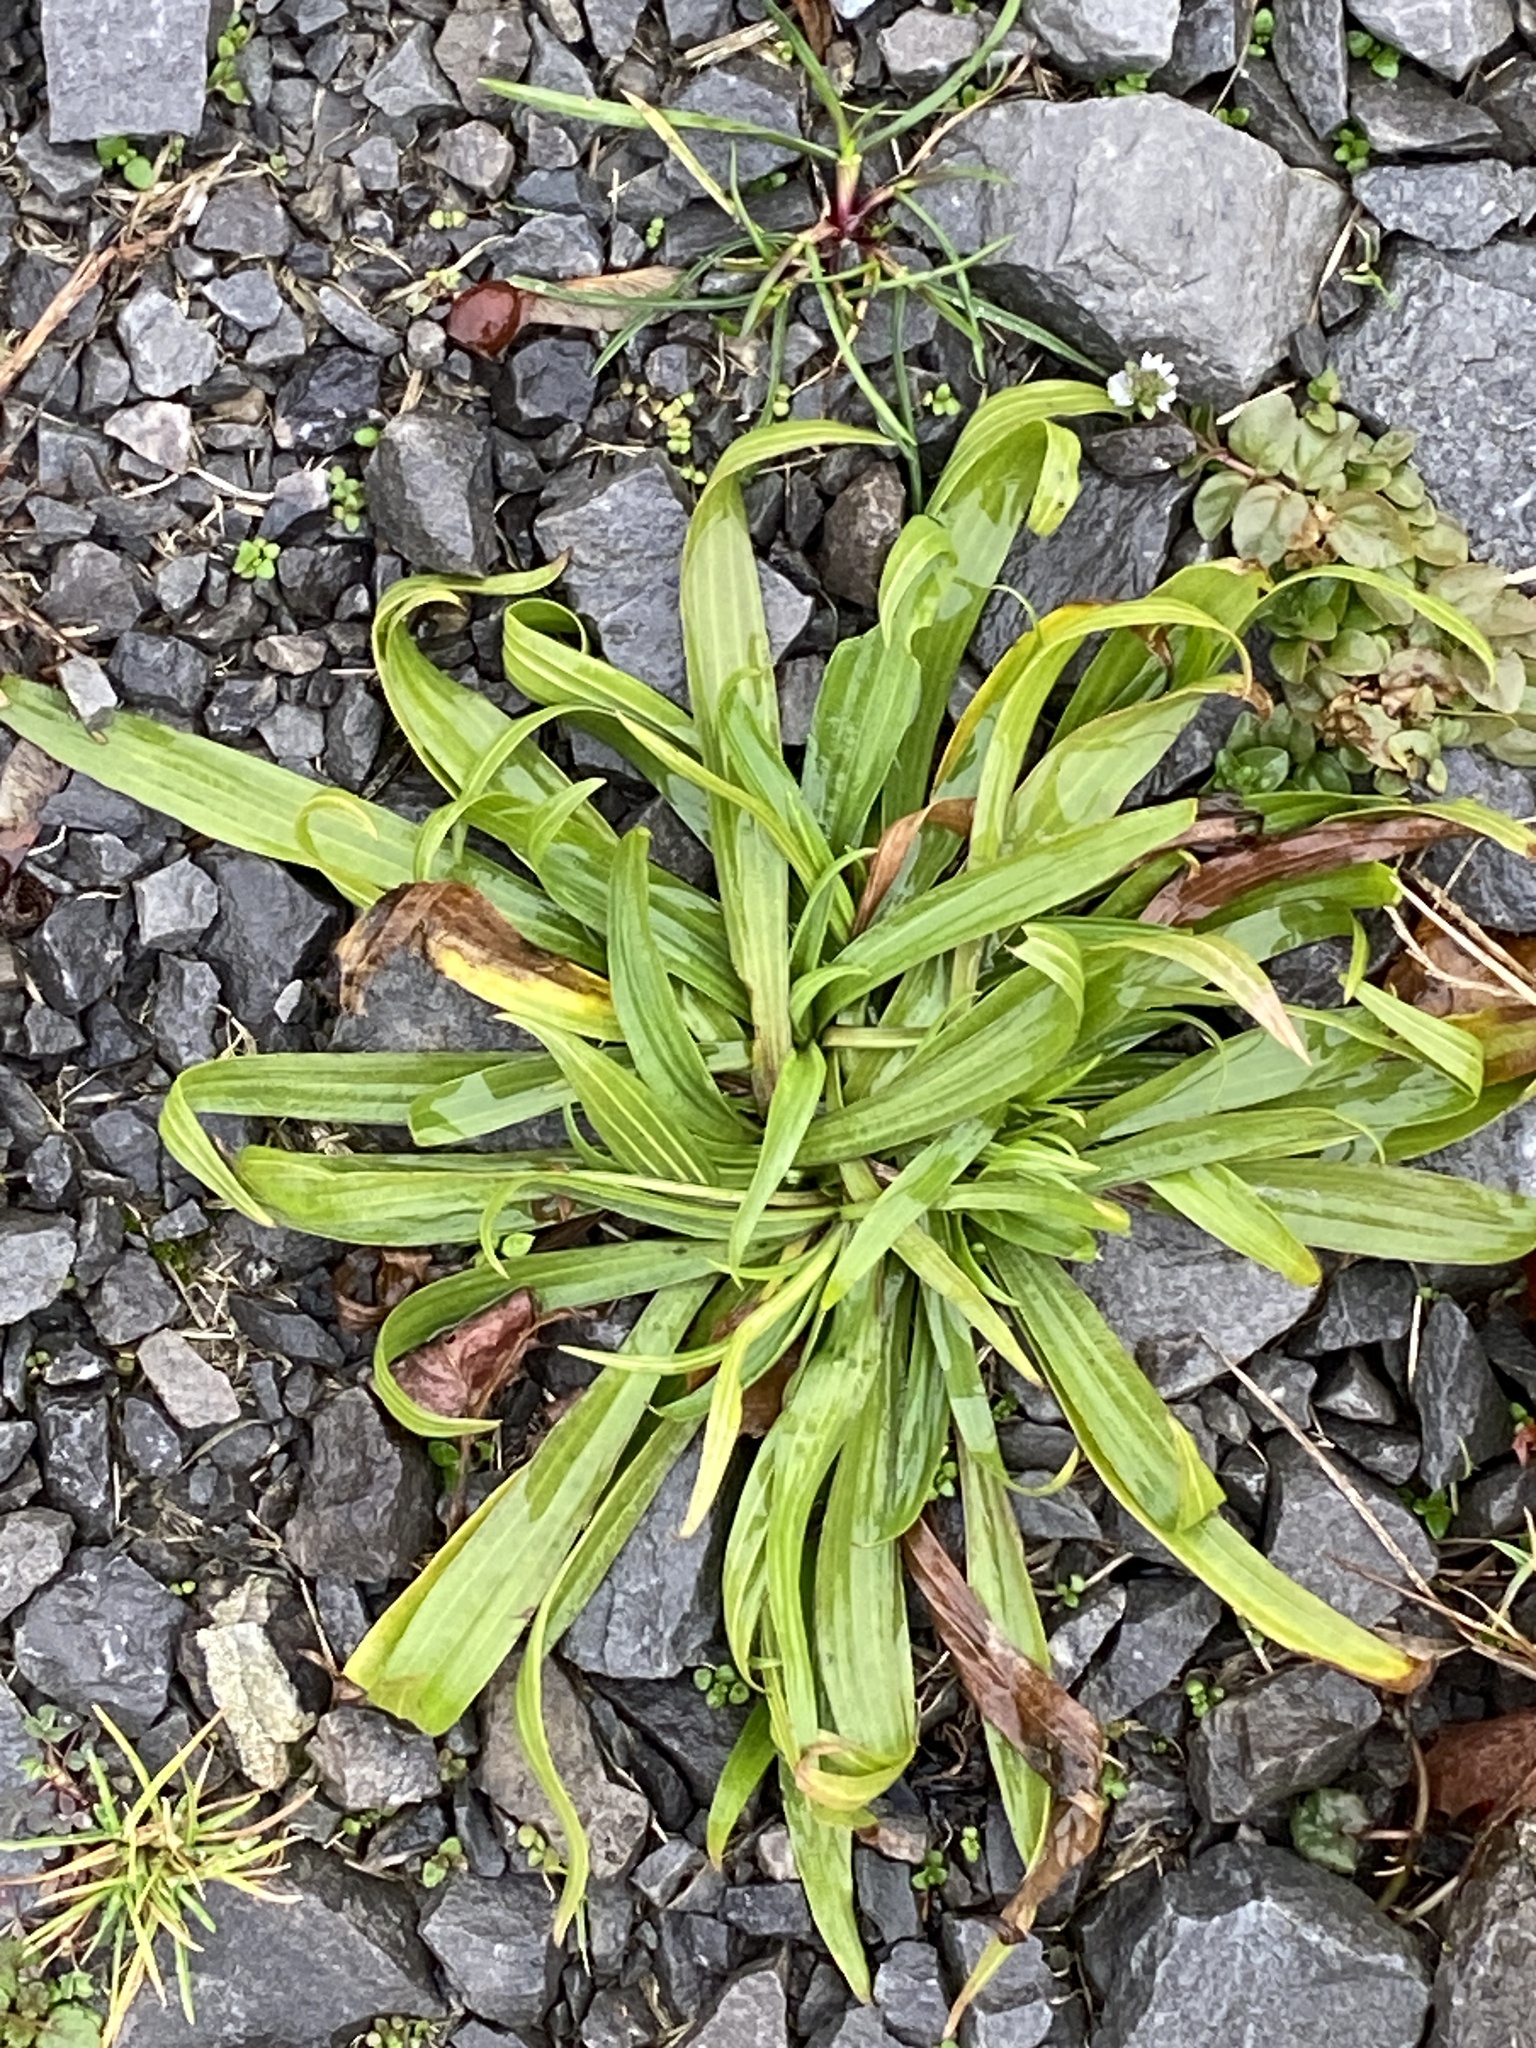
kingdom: Plantae
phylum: Tracheophyta
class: Magnoliopsida
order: Lamiales
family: Plantaginaceae
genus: Plantago
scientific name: Plantago lanceolata
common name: Ribwort plantain
